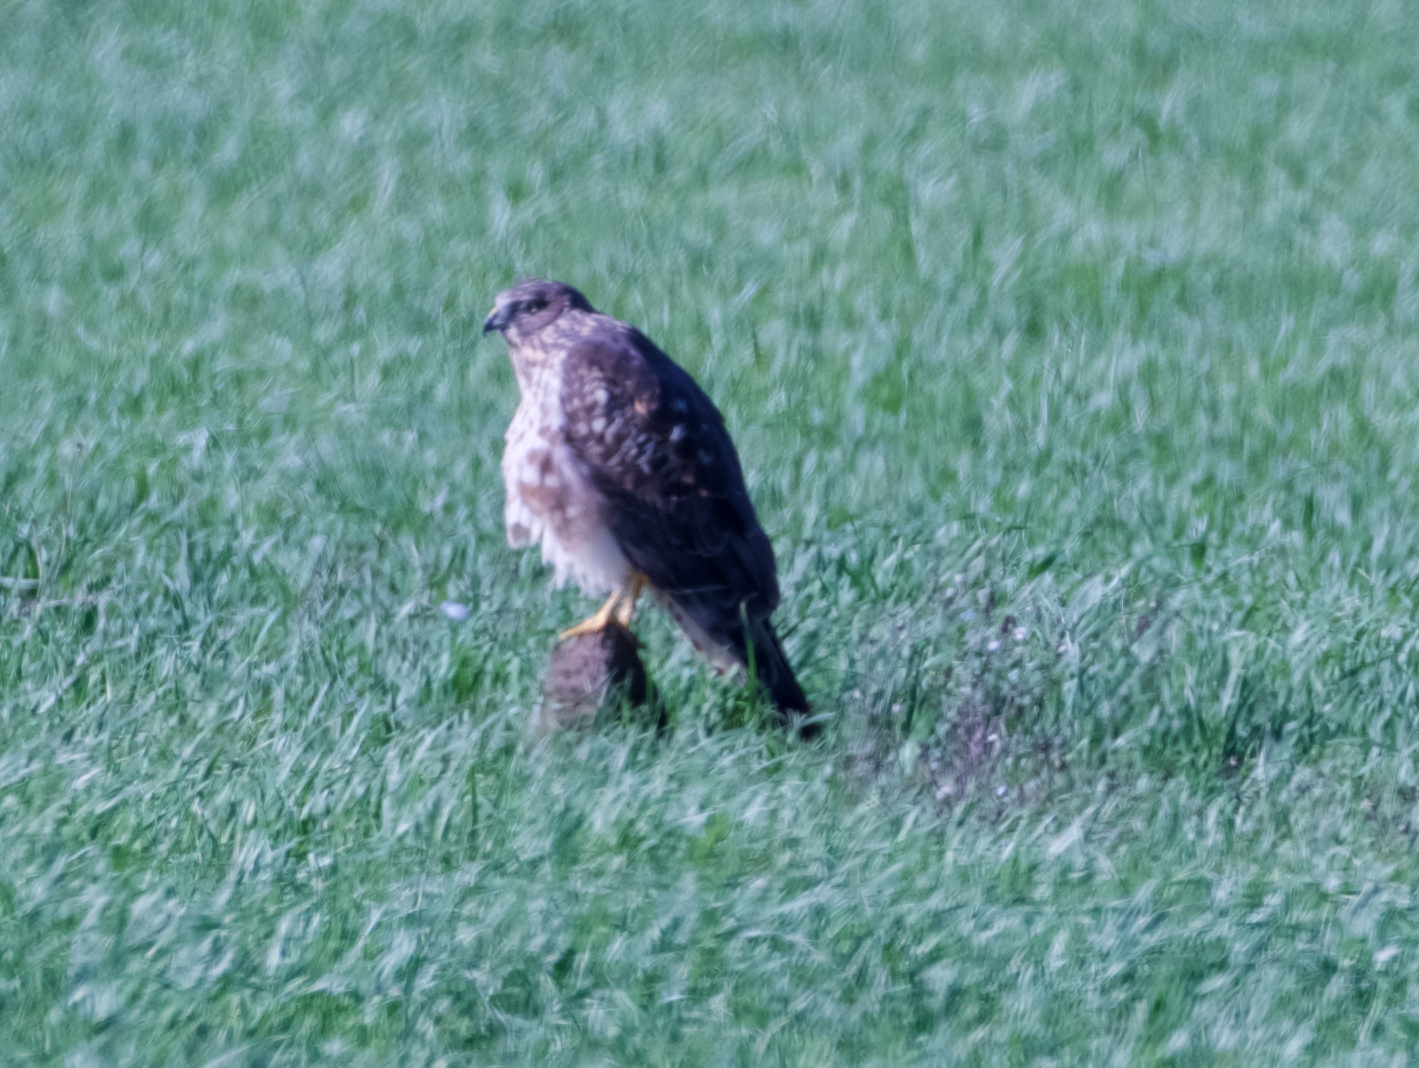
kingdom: Animalia
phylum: Chordata
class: Aves
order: Accipitriformes
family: Accipitridae
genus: Accipiter
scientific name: Accipiter cooperii
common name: Cooper's hawk
